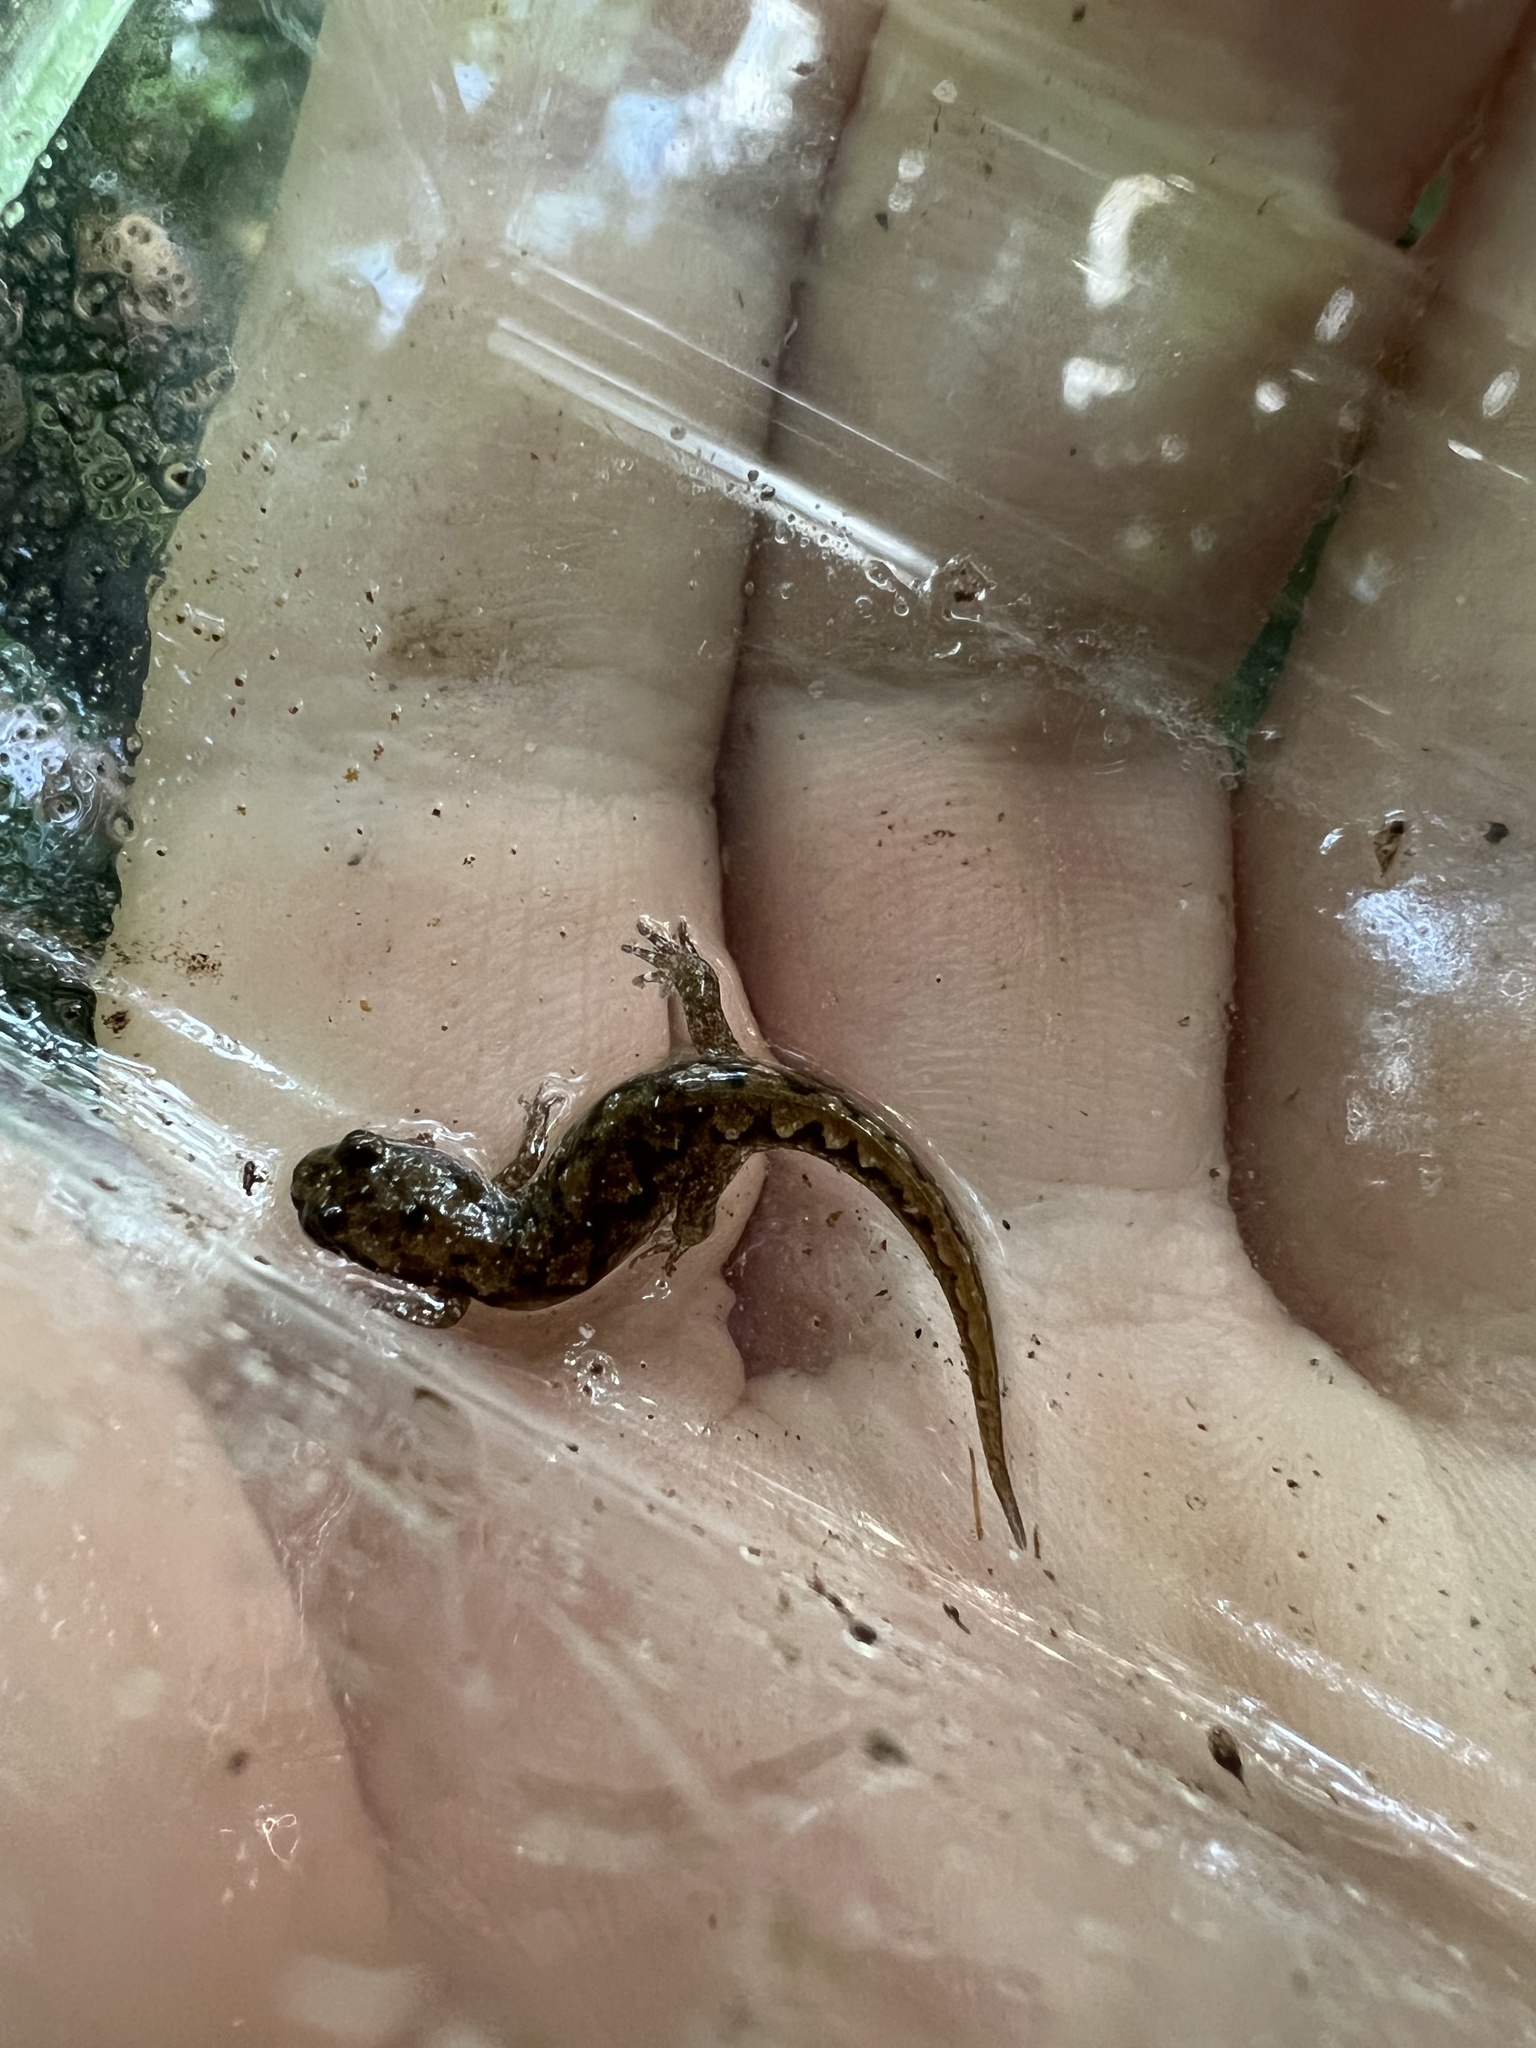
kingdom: Animalia
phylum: Chordata
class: Amphibia
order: Caudata
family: Plethodontidae
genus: Desmognathus
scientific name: Desmognathus ocoee
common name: Ocoee salamander
